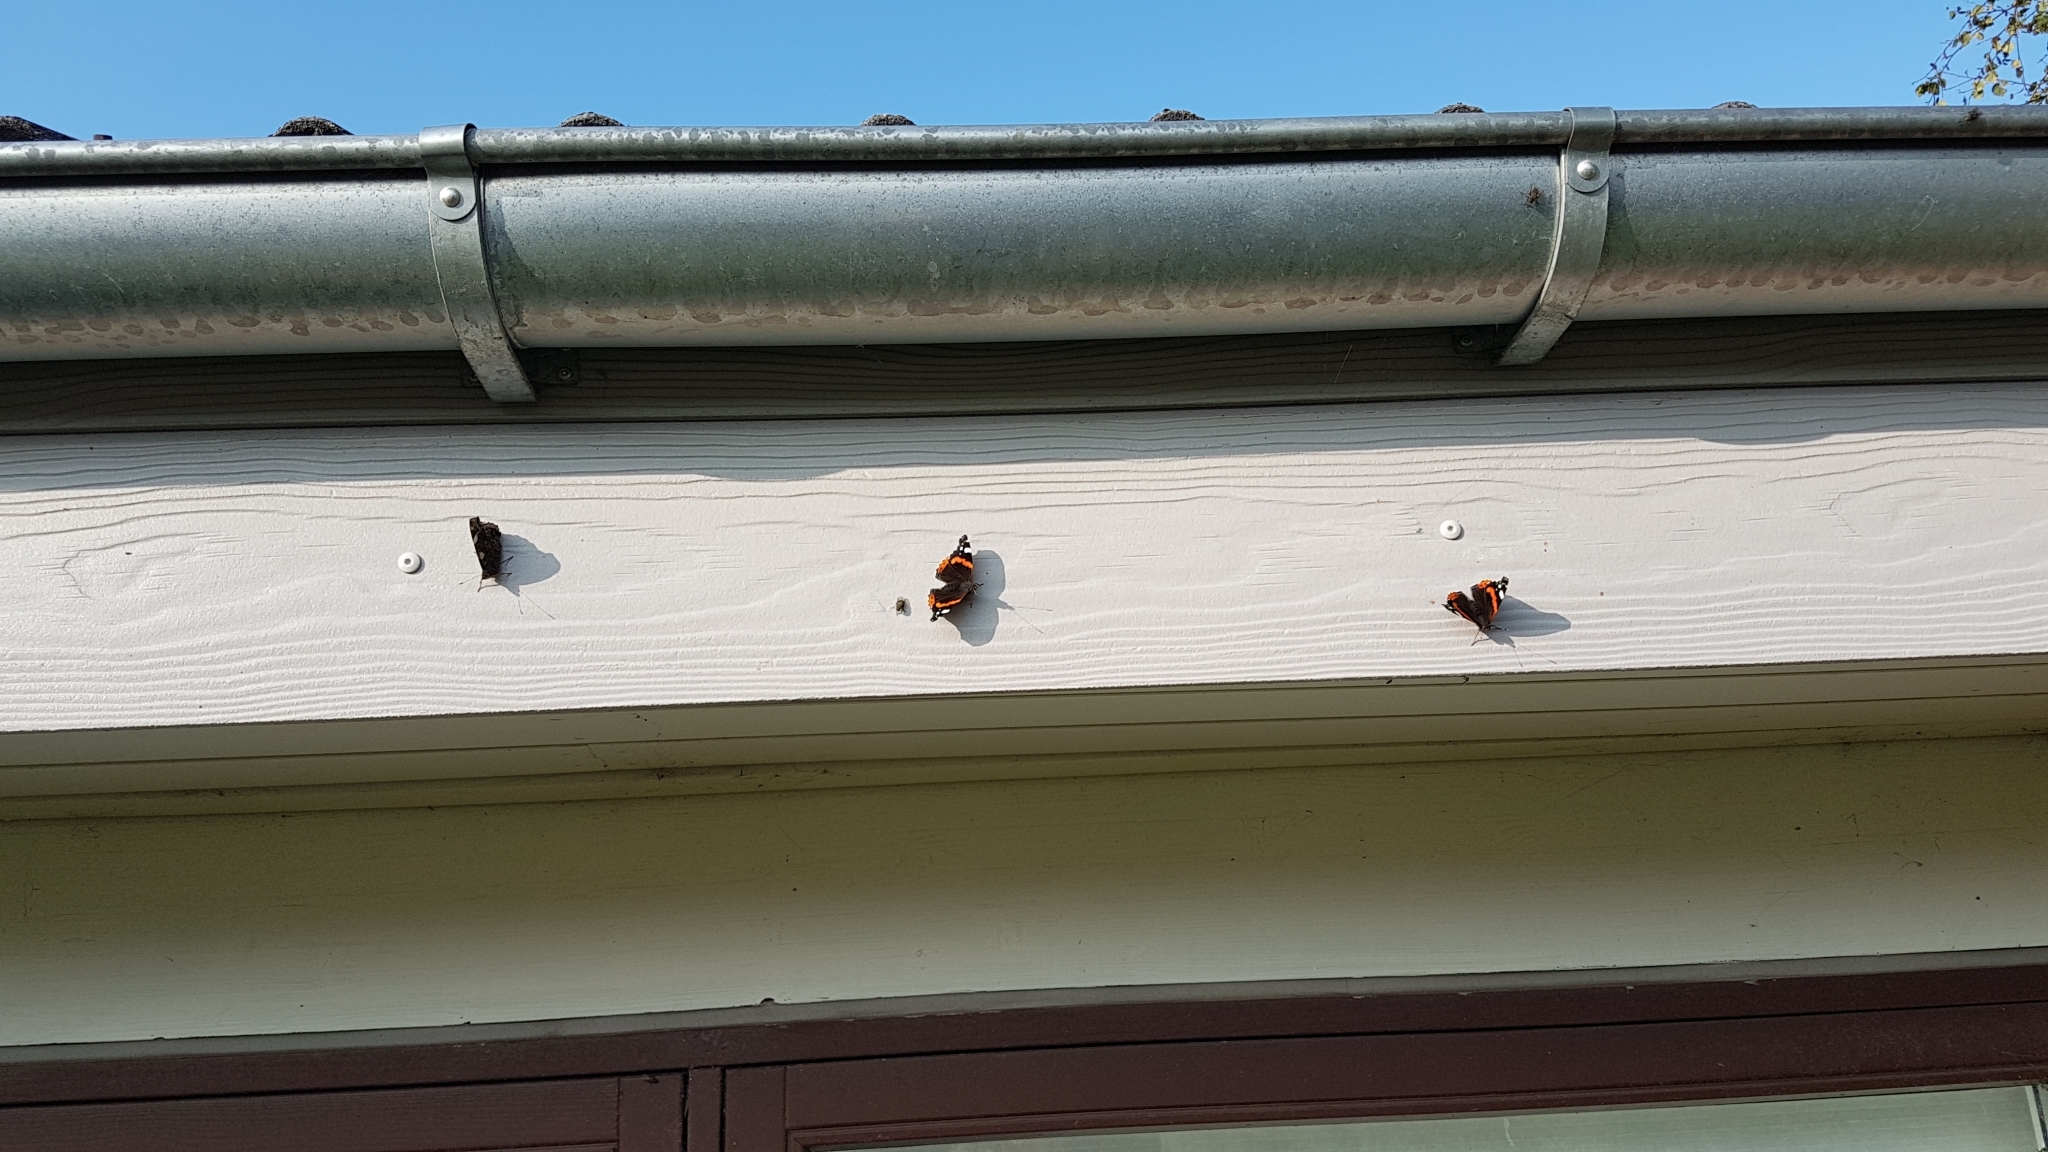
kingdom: Animalia
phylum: Arthropoda
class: Insecta
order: Lepidoptera
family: Nymphalidae
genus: Vanessa
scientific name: Vanessa atalanta
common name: Red admiral
